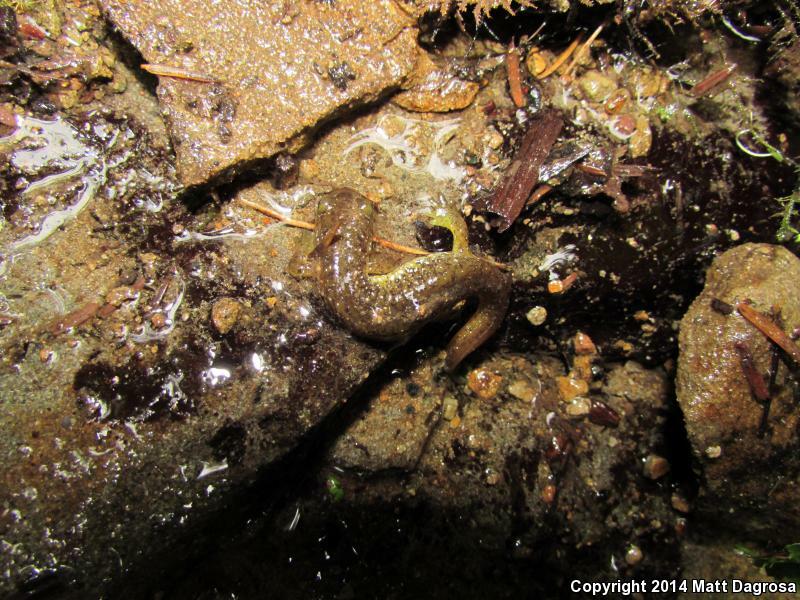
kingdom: Animalia
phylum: Chordata
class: Amphibia
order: Caudata
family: Rhyacotritonidae
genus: Rhyacotriton
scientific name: Rhyacotriton variegatus
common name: Southern torrent salamander
